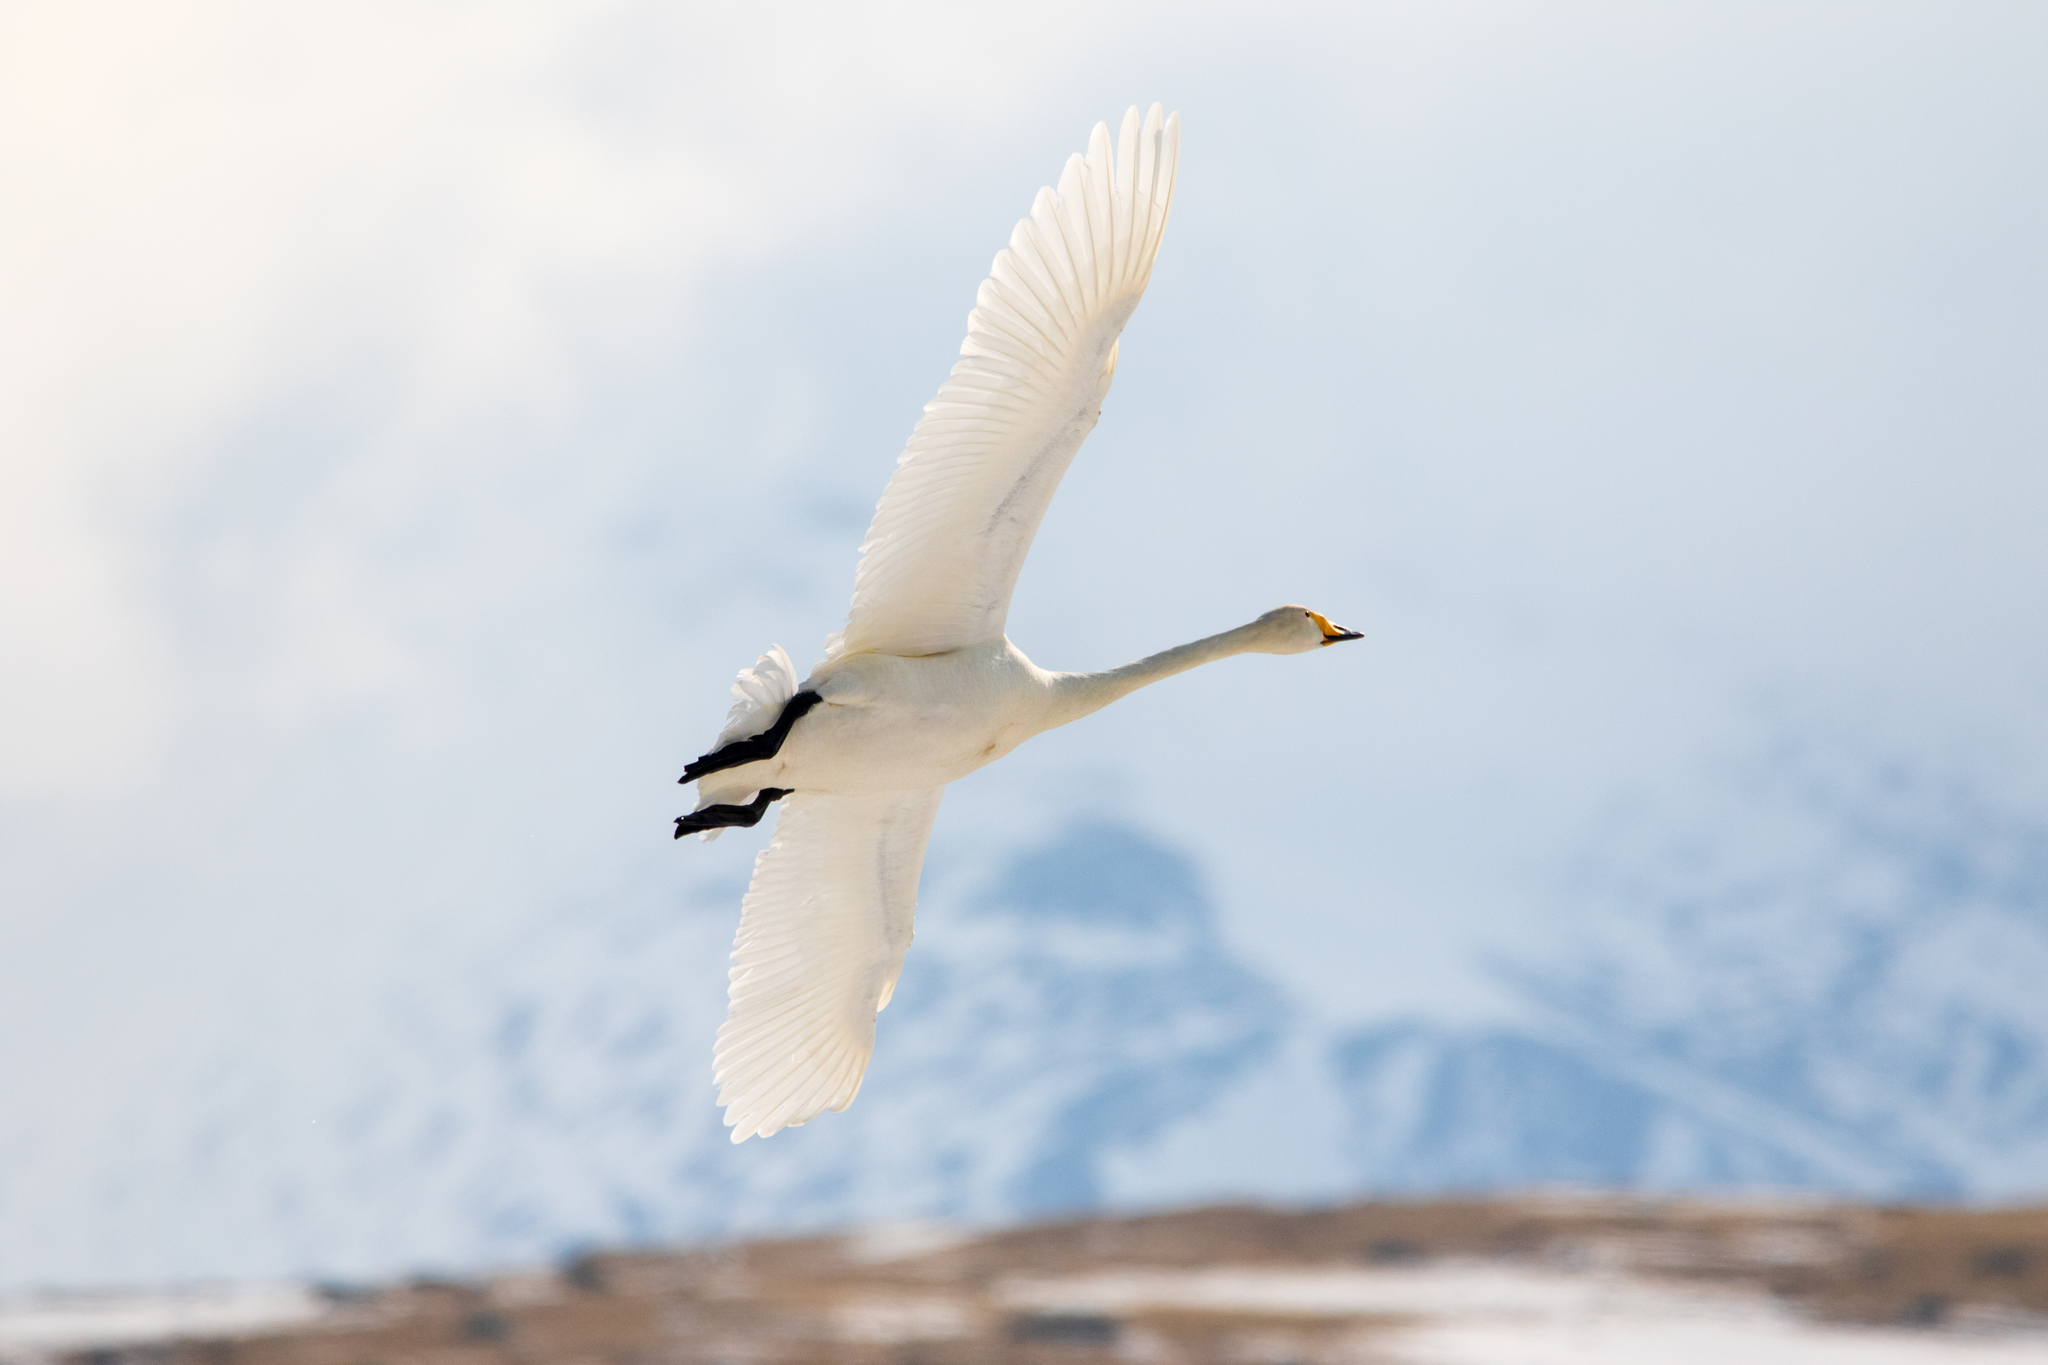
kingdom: Animalia
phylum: Chordata
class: Aves
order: Anseriformes
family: Anatidae
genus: Cygnus
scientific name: Cygnus cygnus
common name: Whooper swan
